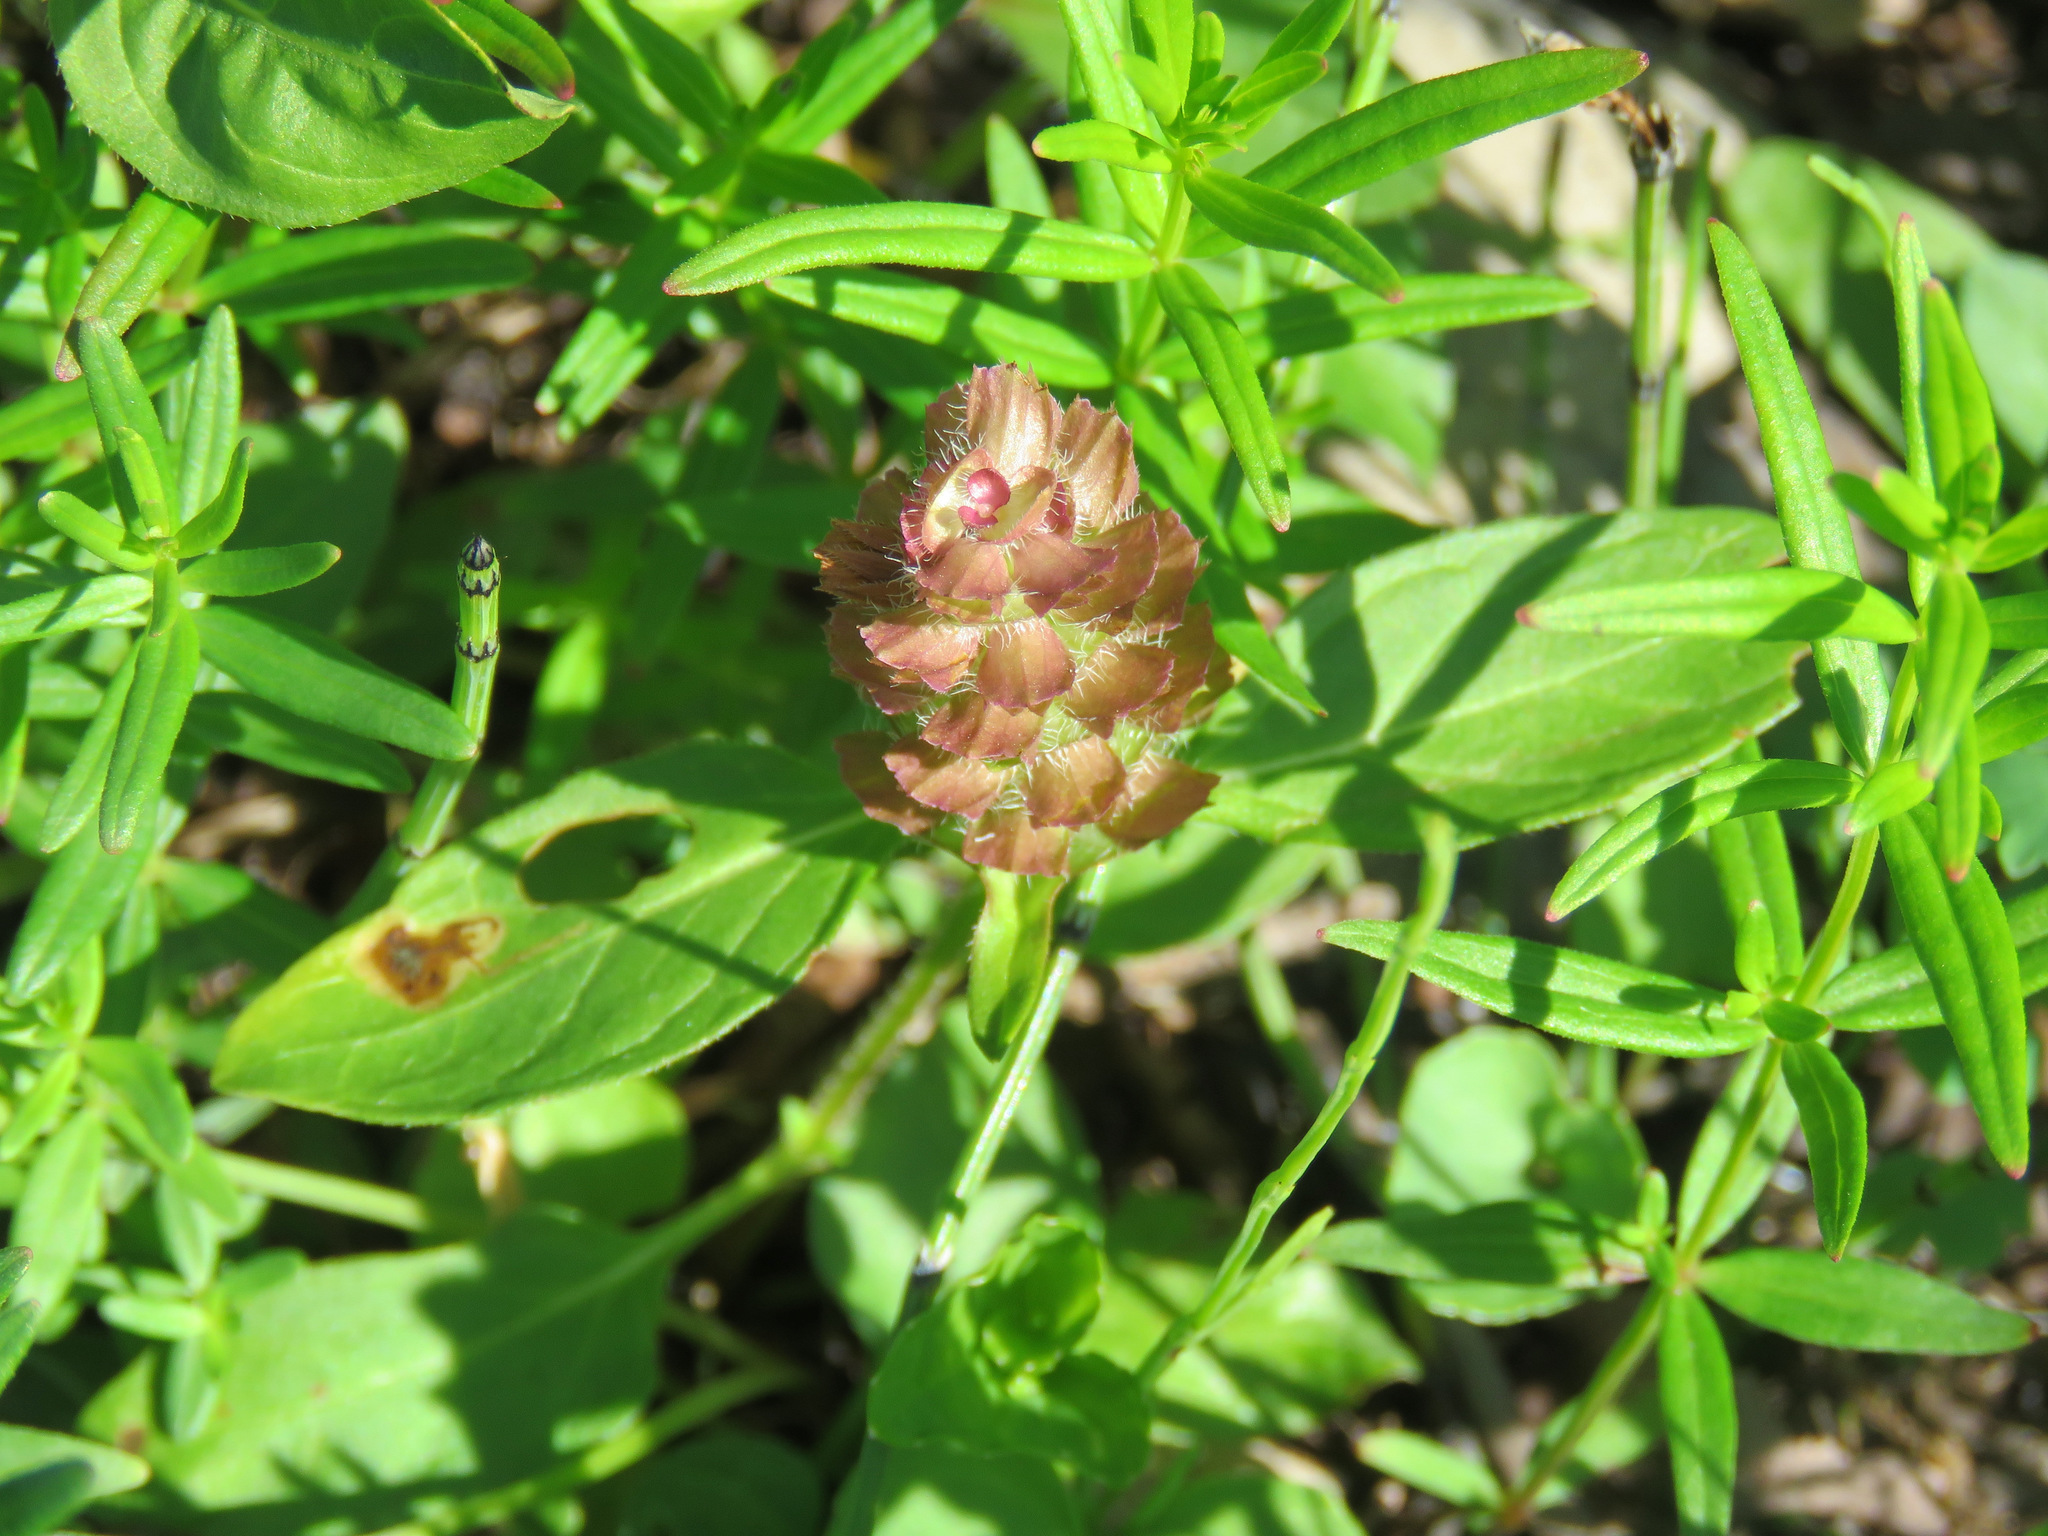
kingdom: Plantae
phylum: Tracheophyta
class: Magnoliopsida
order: Lamiales
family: Lamiaceae
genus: Prunella
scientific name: Prunella vulgaris
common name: Heal-all
